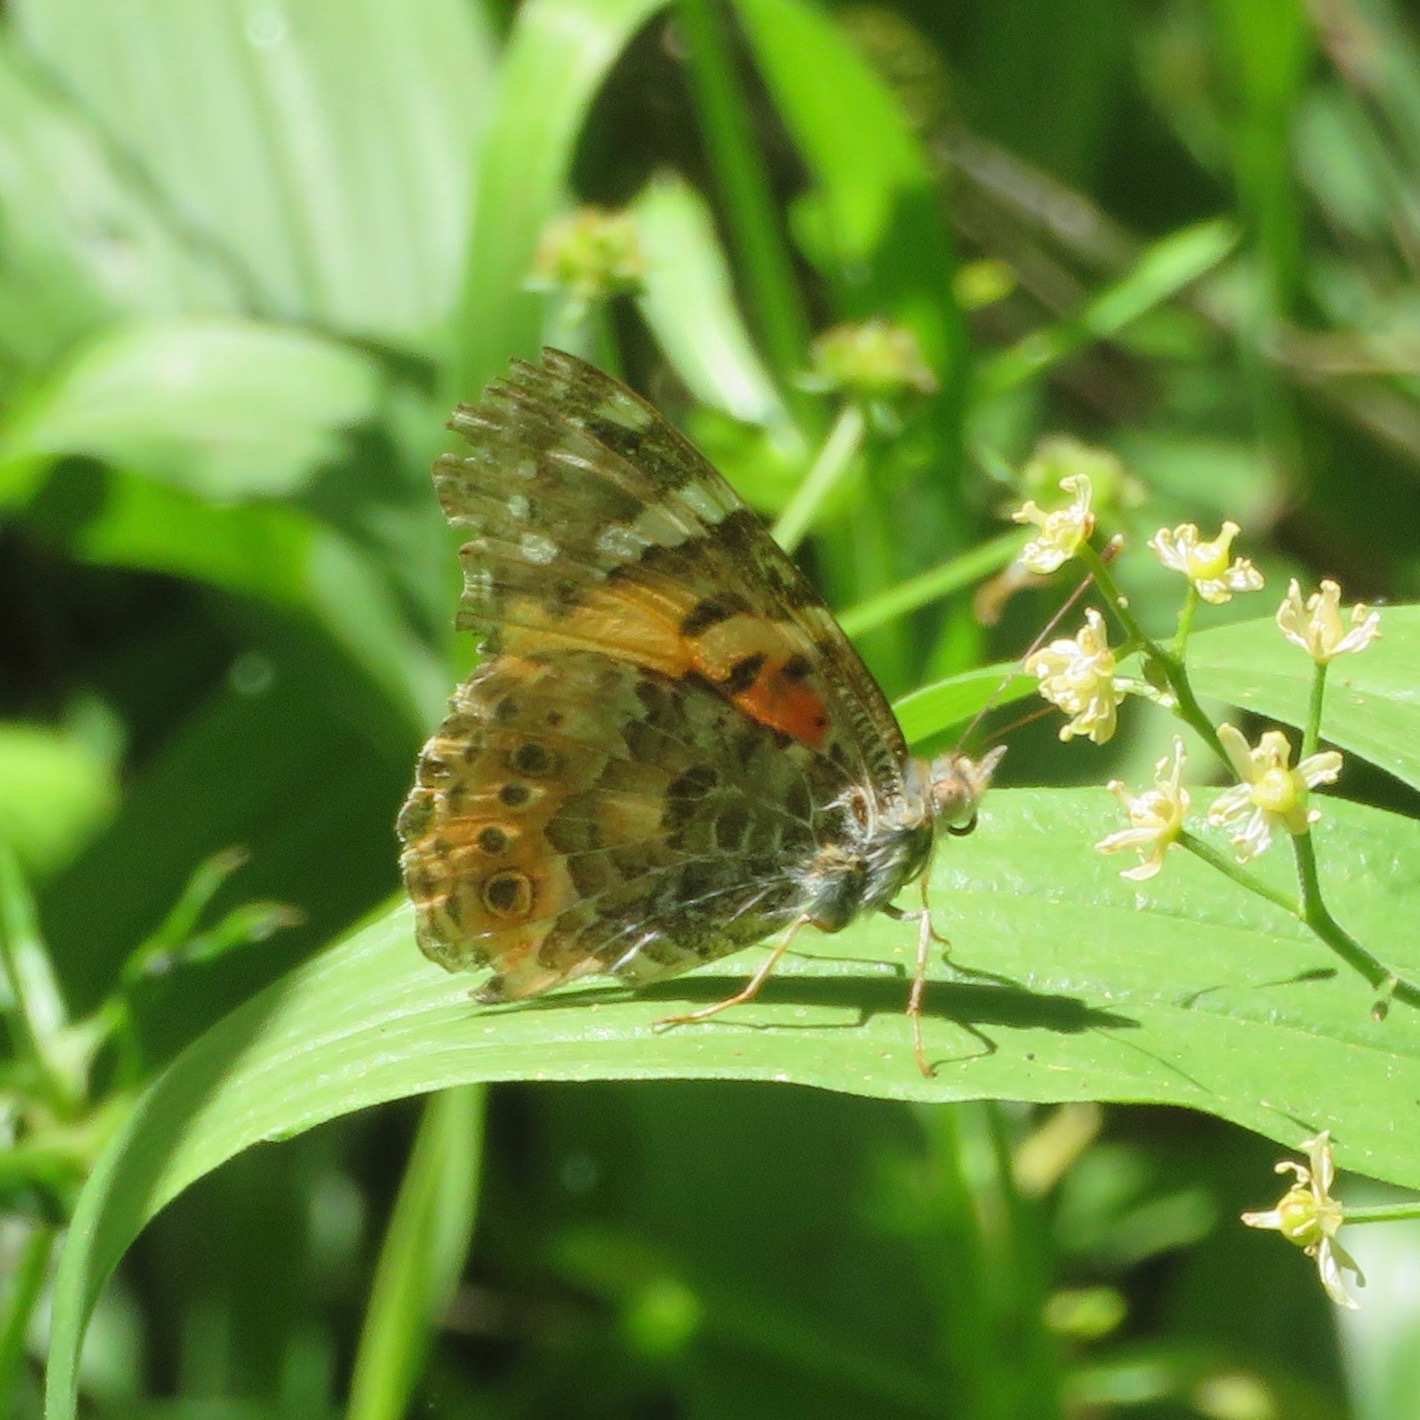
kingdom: Animalia
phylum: Arthropoda
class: Insecta
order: Lepidoptera
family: Nymphalidae
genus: Vanessa
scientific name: Vanessa cardui
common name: Painted lady
